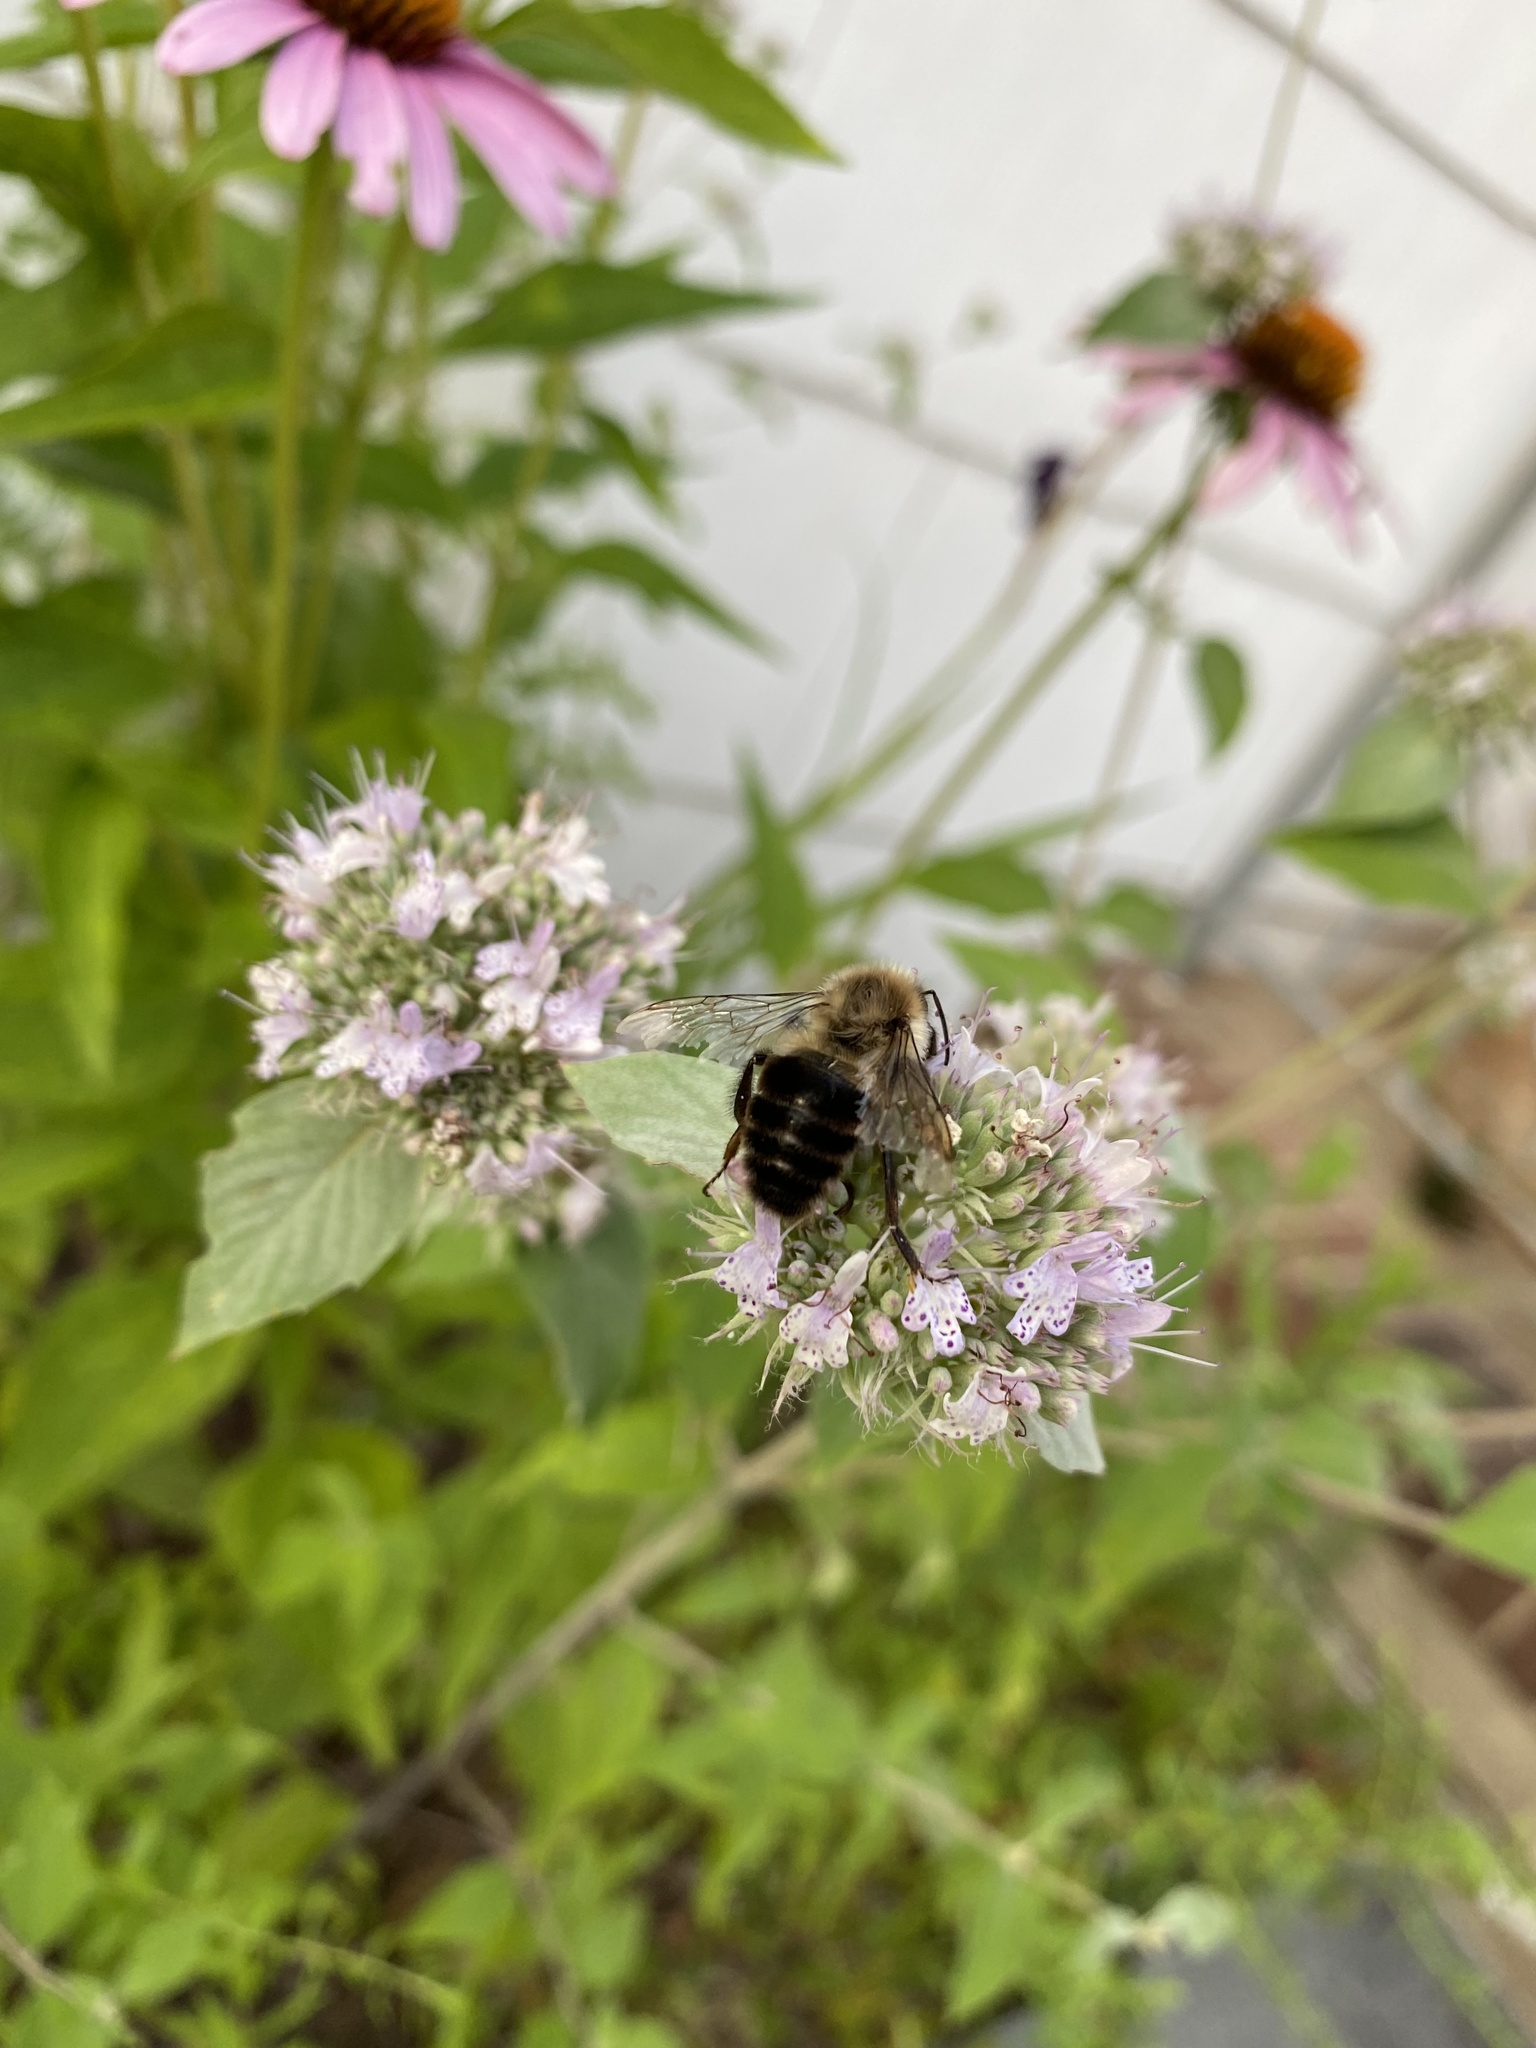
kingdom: Animalia
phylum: Arthropoda
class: Insecta
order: Hymenoptera
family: Apidae
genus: Bombus
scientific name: Bombus impatiens
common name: Common eastern bumble bee
